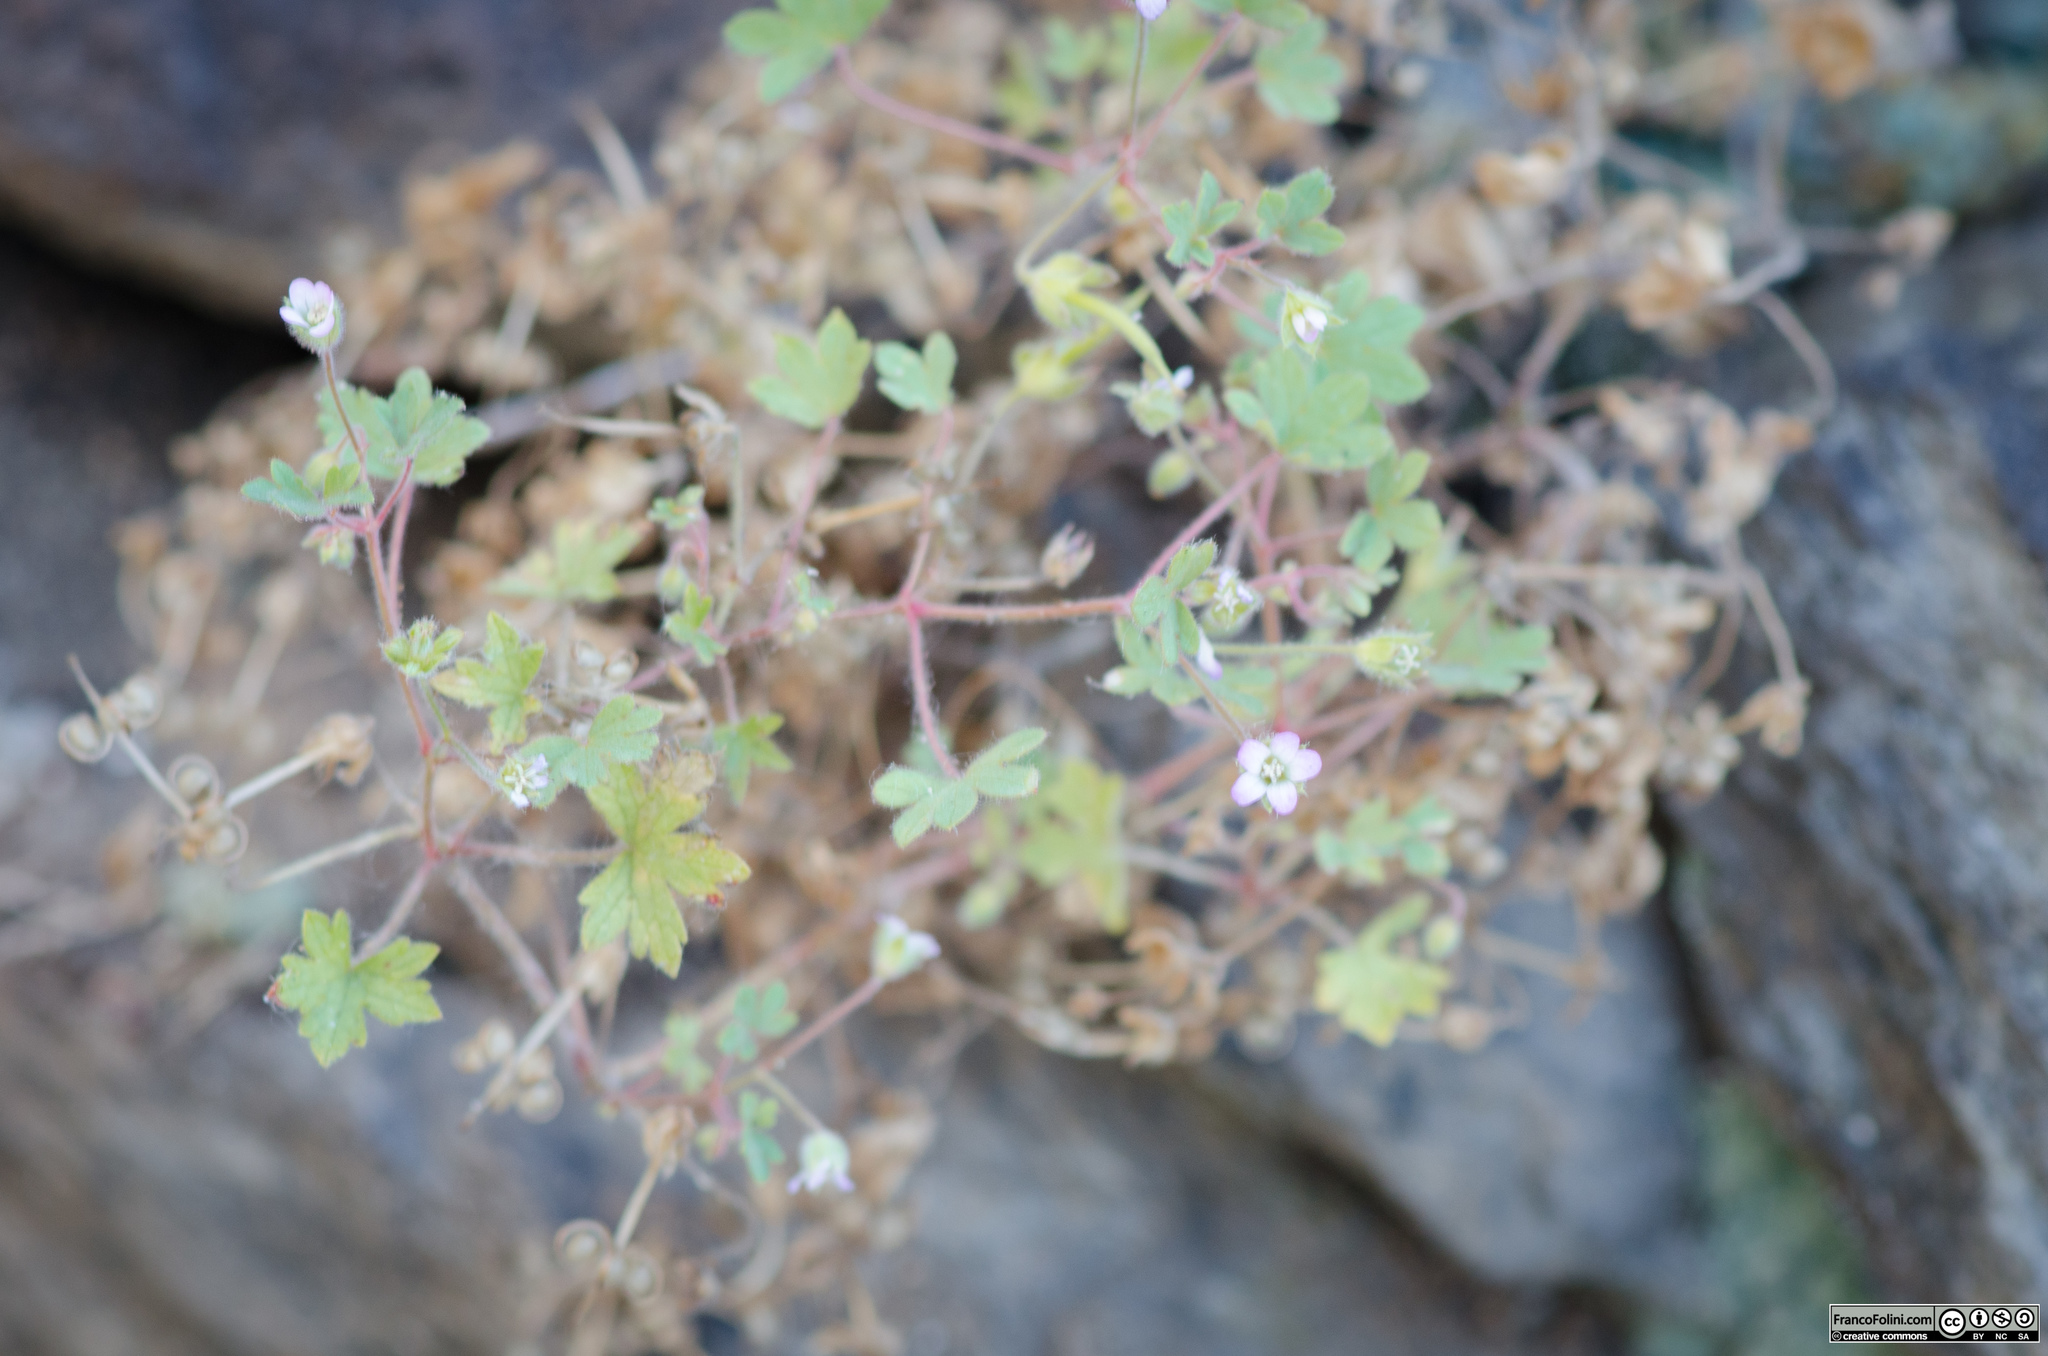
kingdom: Plantae
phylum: Tracheophyta
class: Magnoliopsida
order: Geraniales
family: Geraniaceae
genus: Geranium
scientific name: Geranium rotundifolium
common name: Round-leaved crane's-bill
